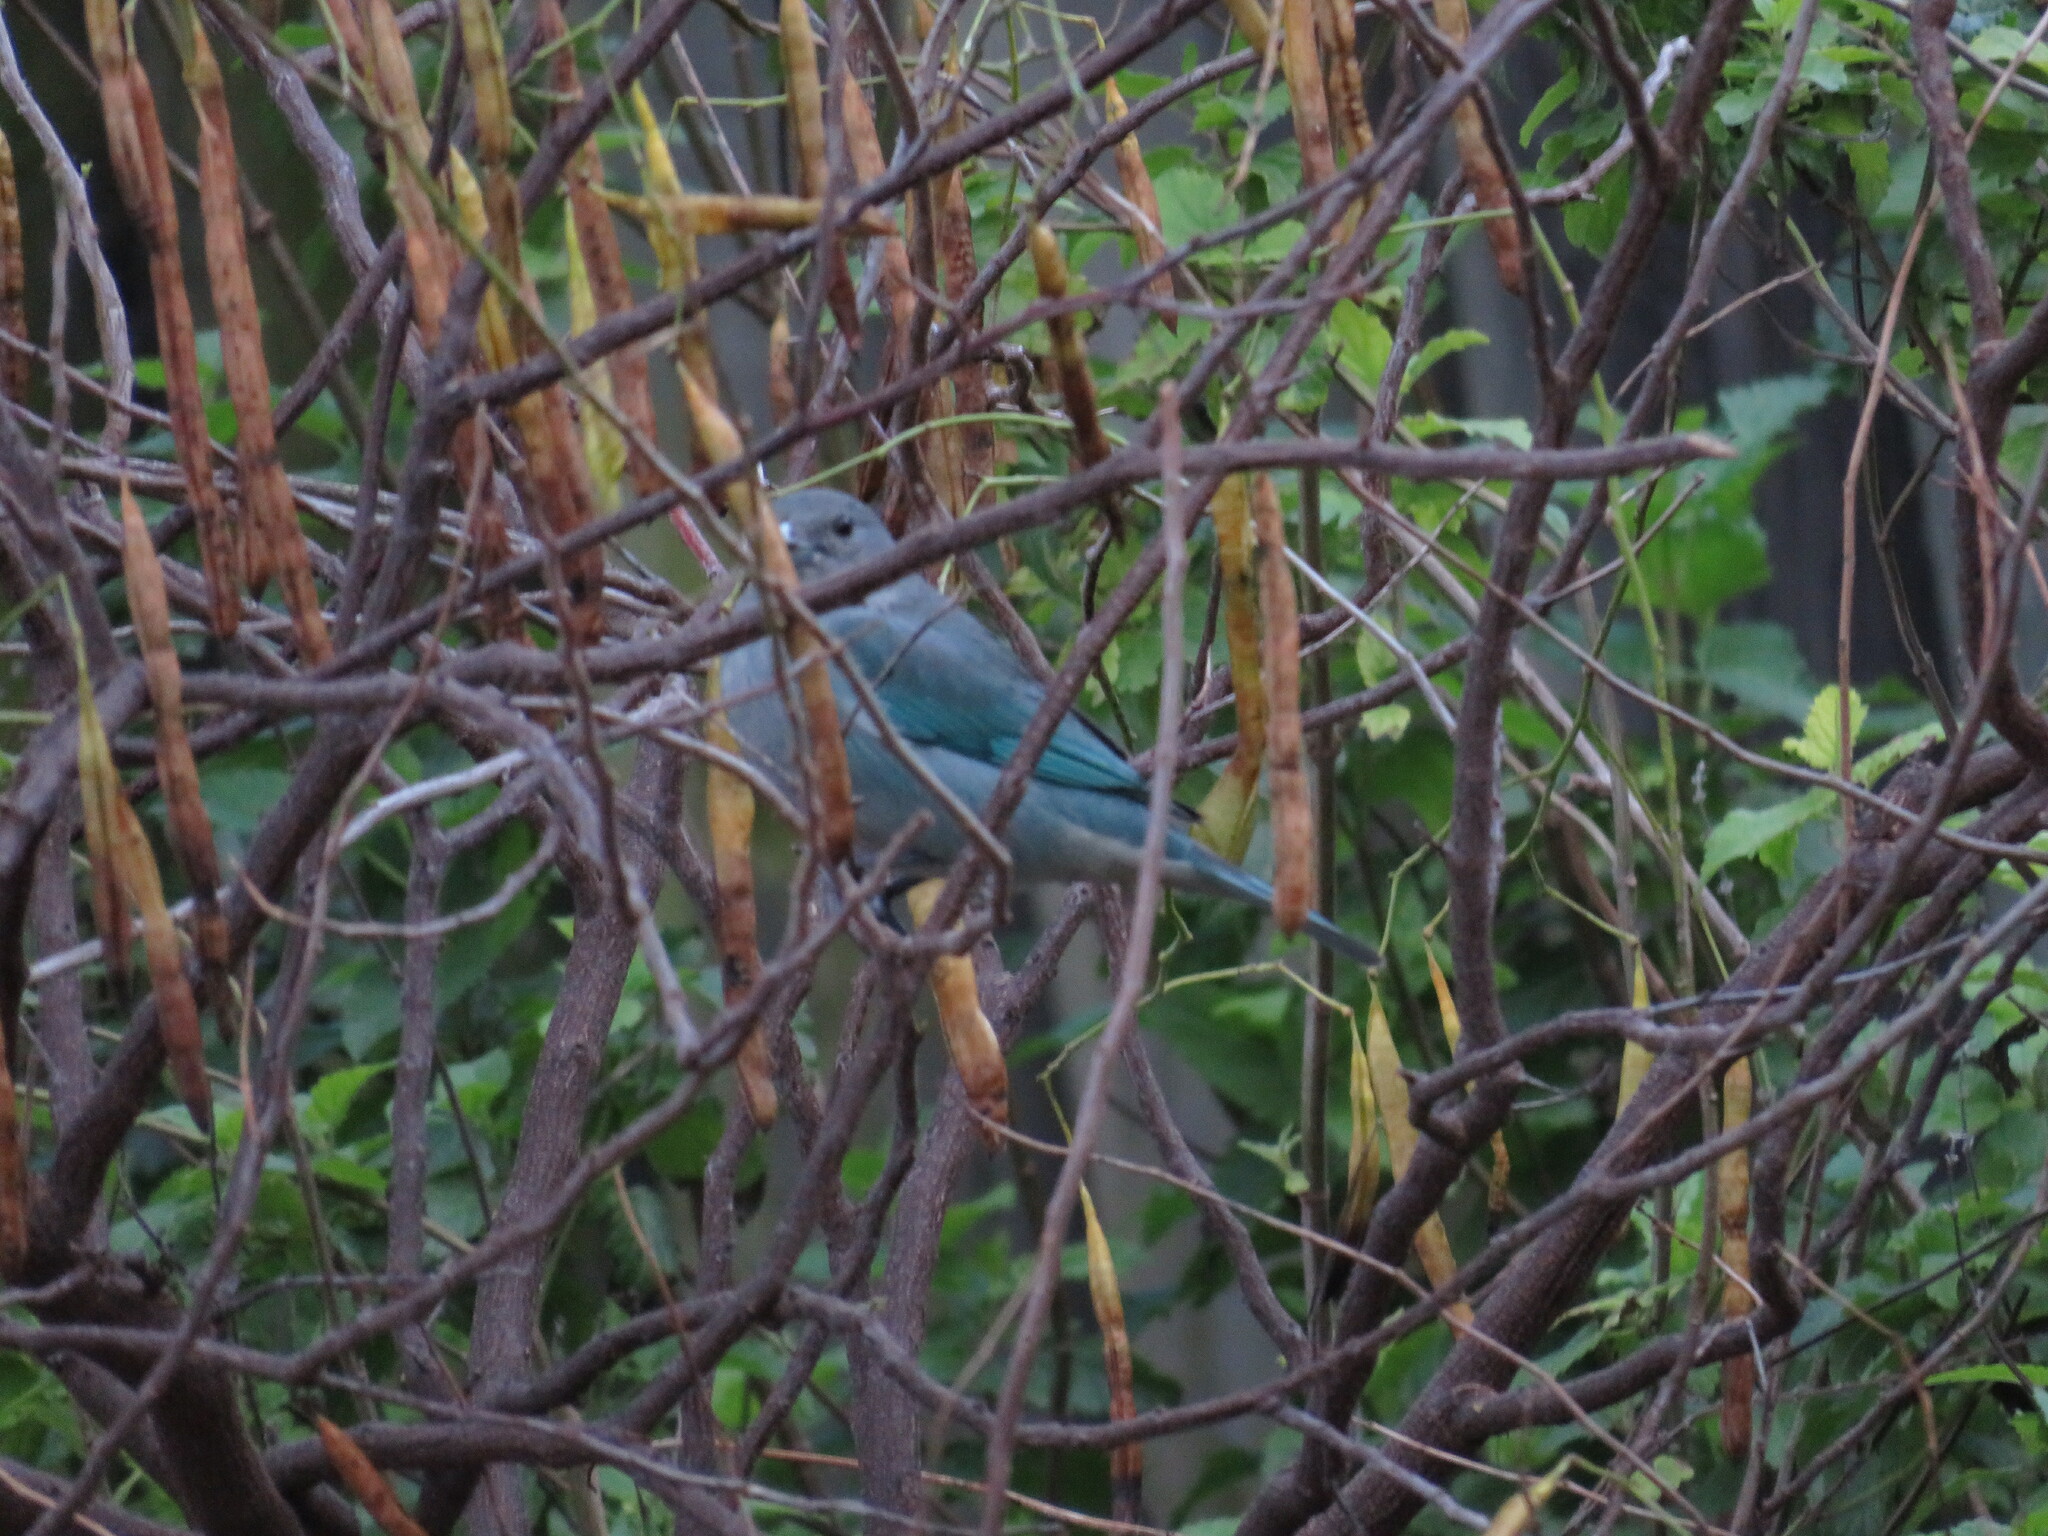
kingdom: Animalia
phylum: Chordata
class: Aves
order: Passeriformes
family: Thraupidae
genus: Thraupis
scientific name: Thraupis sayaca
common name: Sayaca tanager
